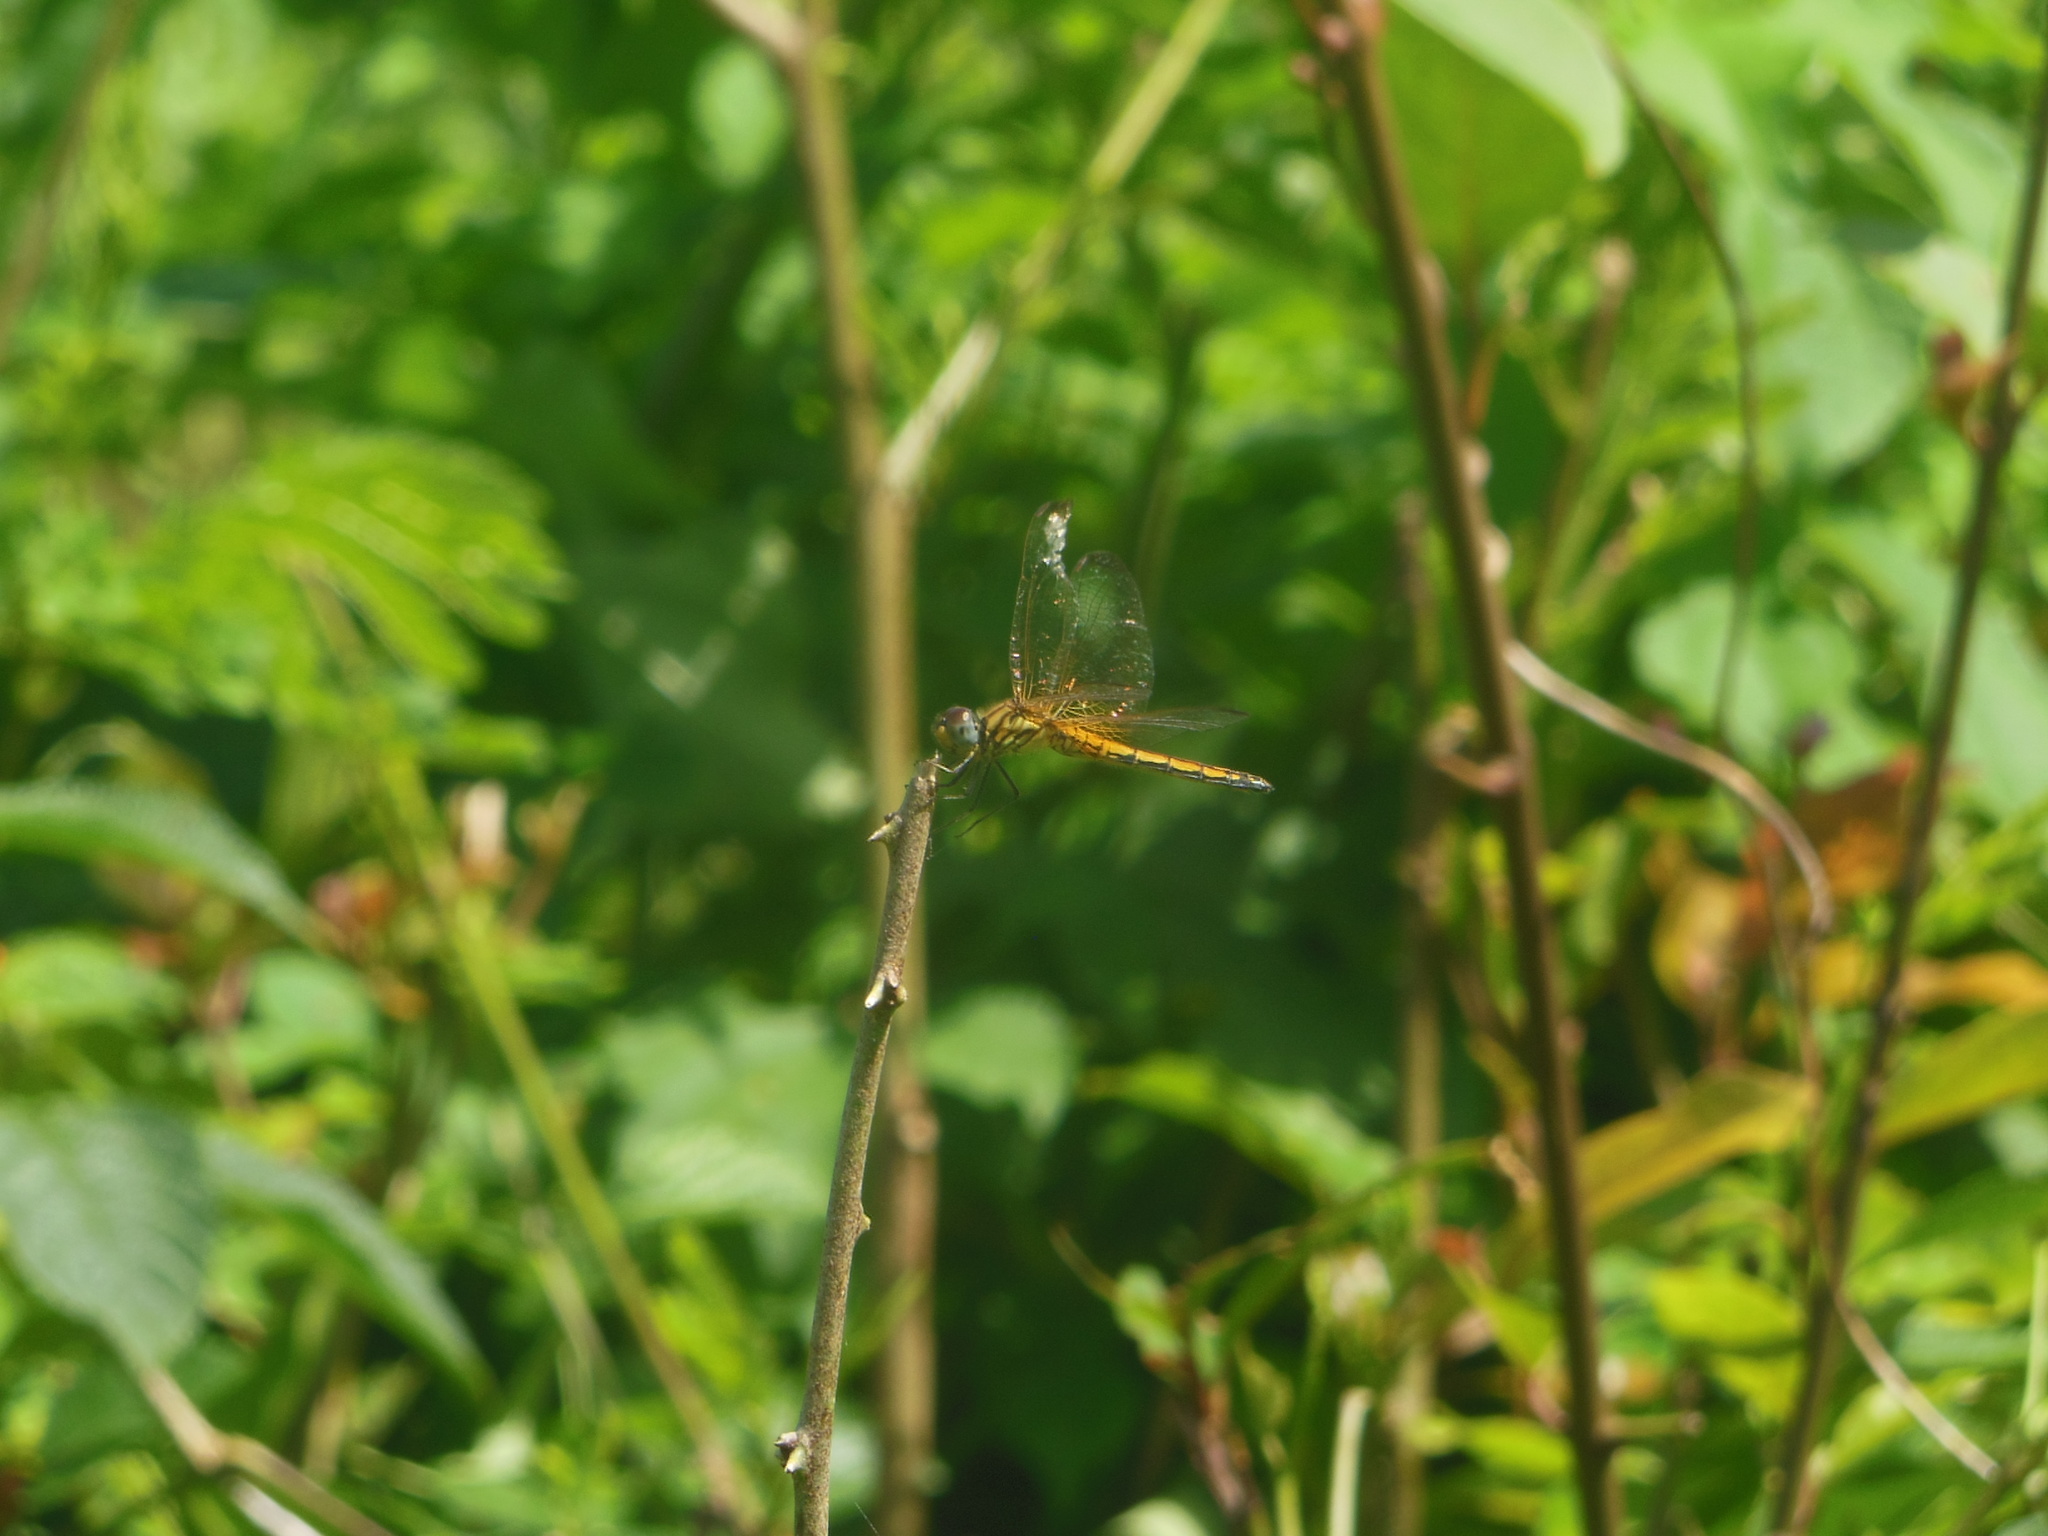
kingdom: Animalia
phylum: Arthropoda
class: Insecta
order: Odonata
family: Libellulidae
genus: Trithemis
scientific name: Trithemis aurora
